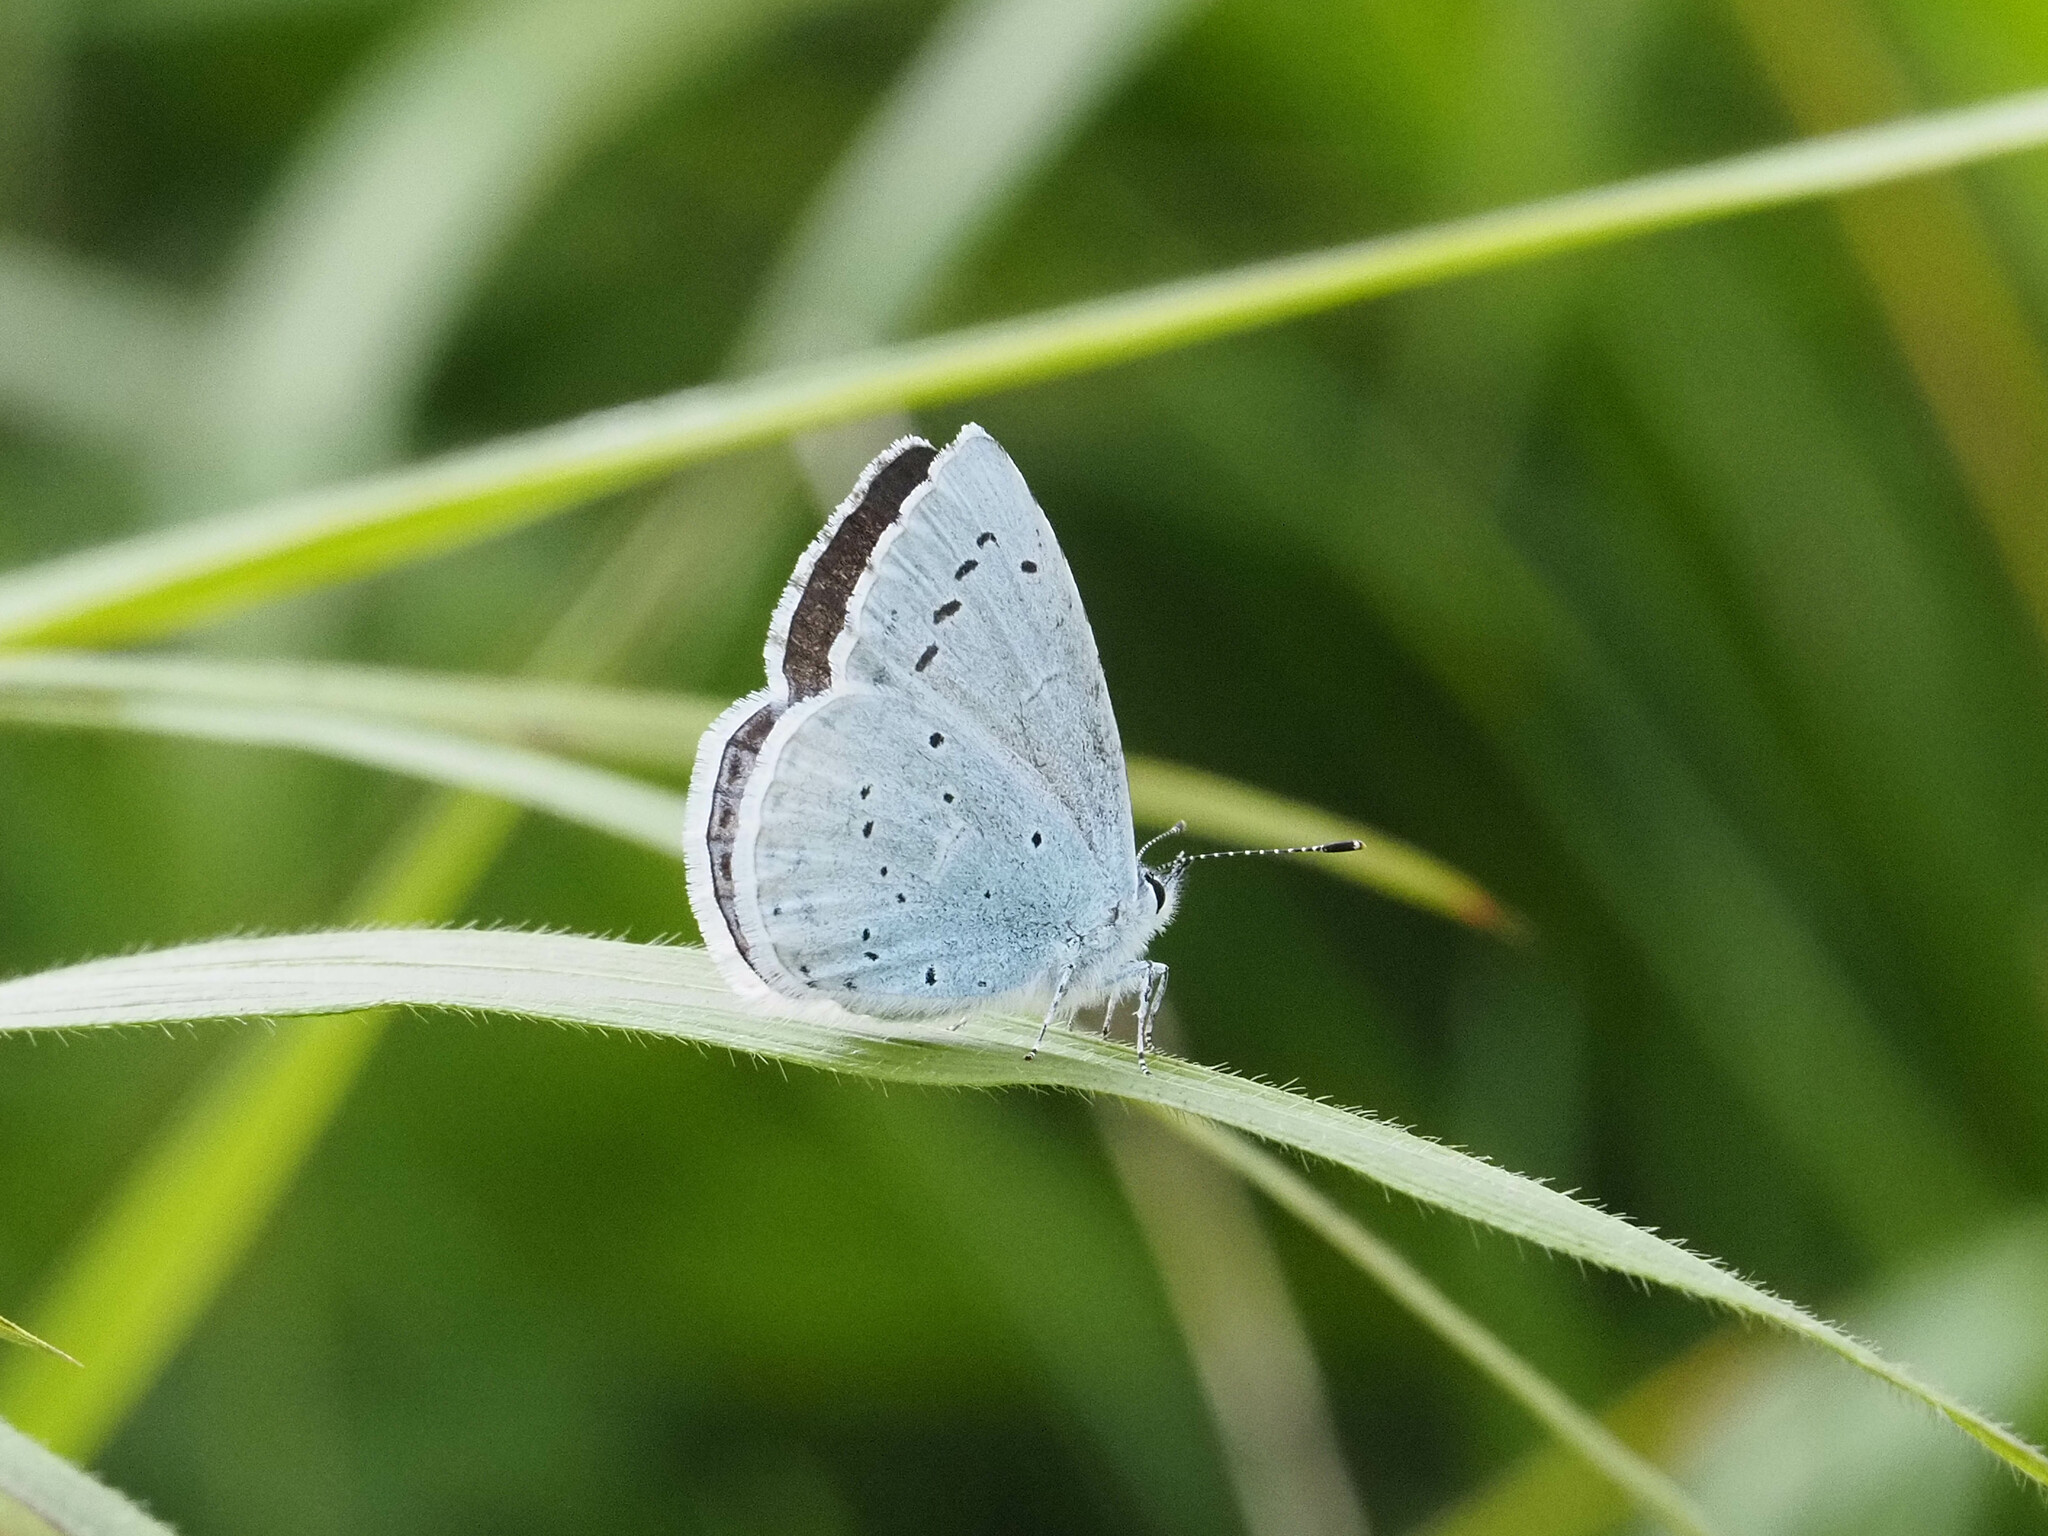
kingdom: Animalia
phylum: Arthropoda
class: Insecta
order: Lepidoptera
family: Lycaenidae
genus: Celastrina
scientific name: Celastrina argiolus
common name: Holly blue
